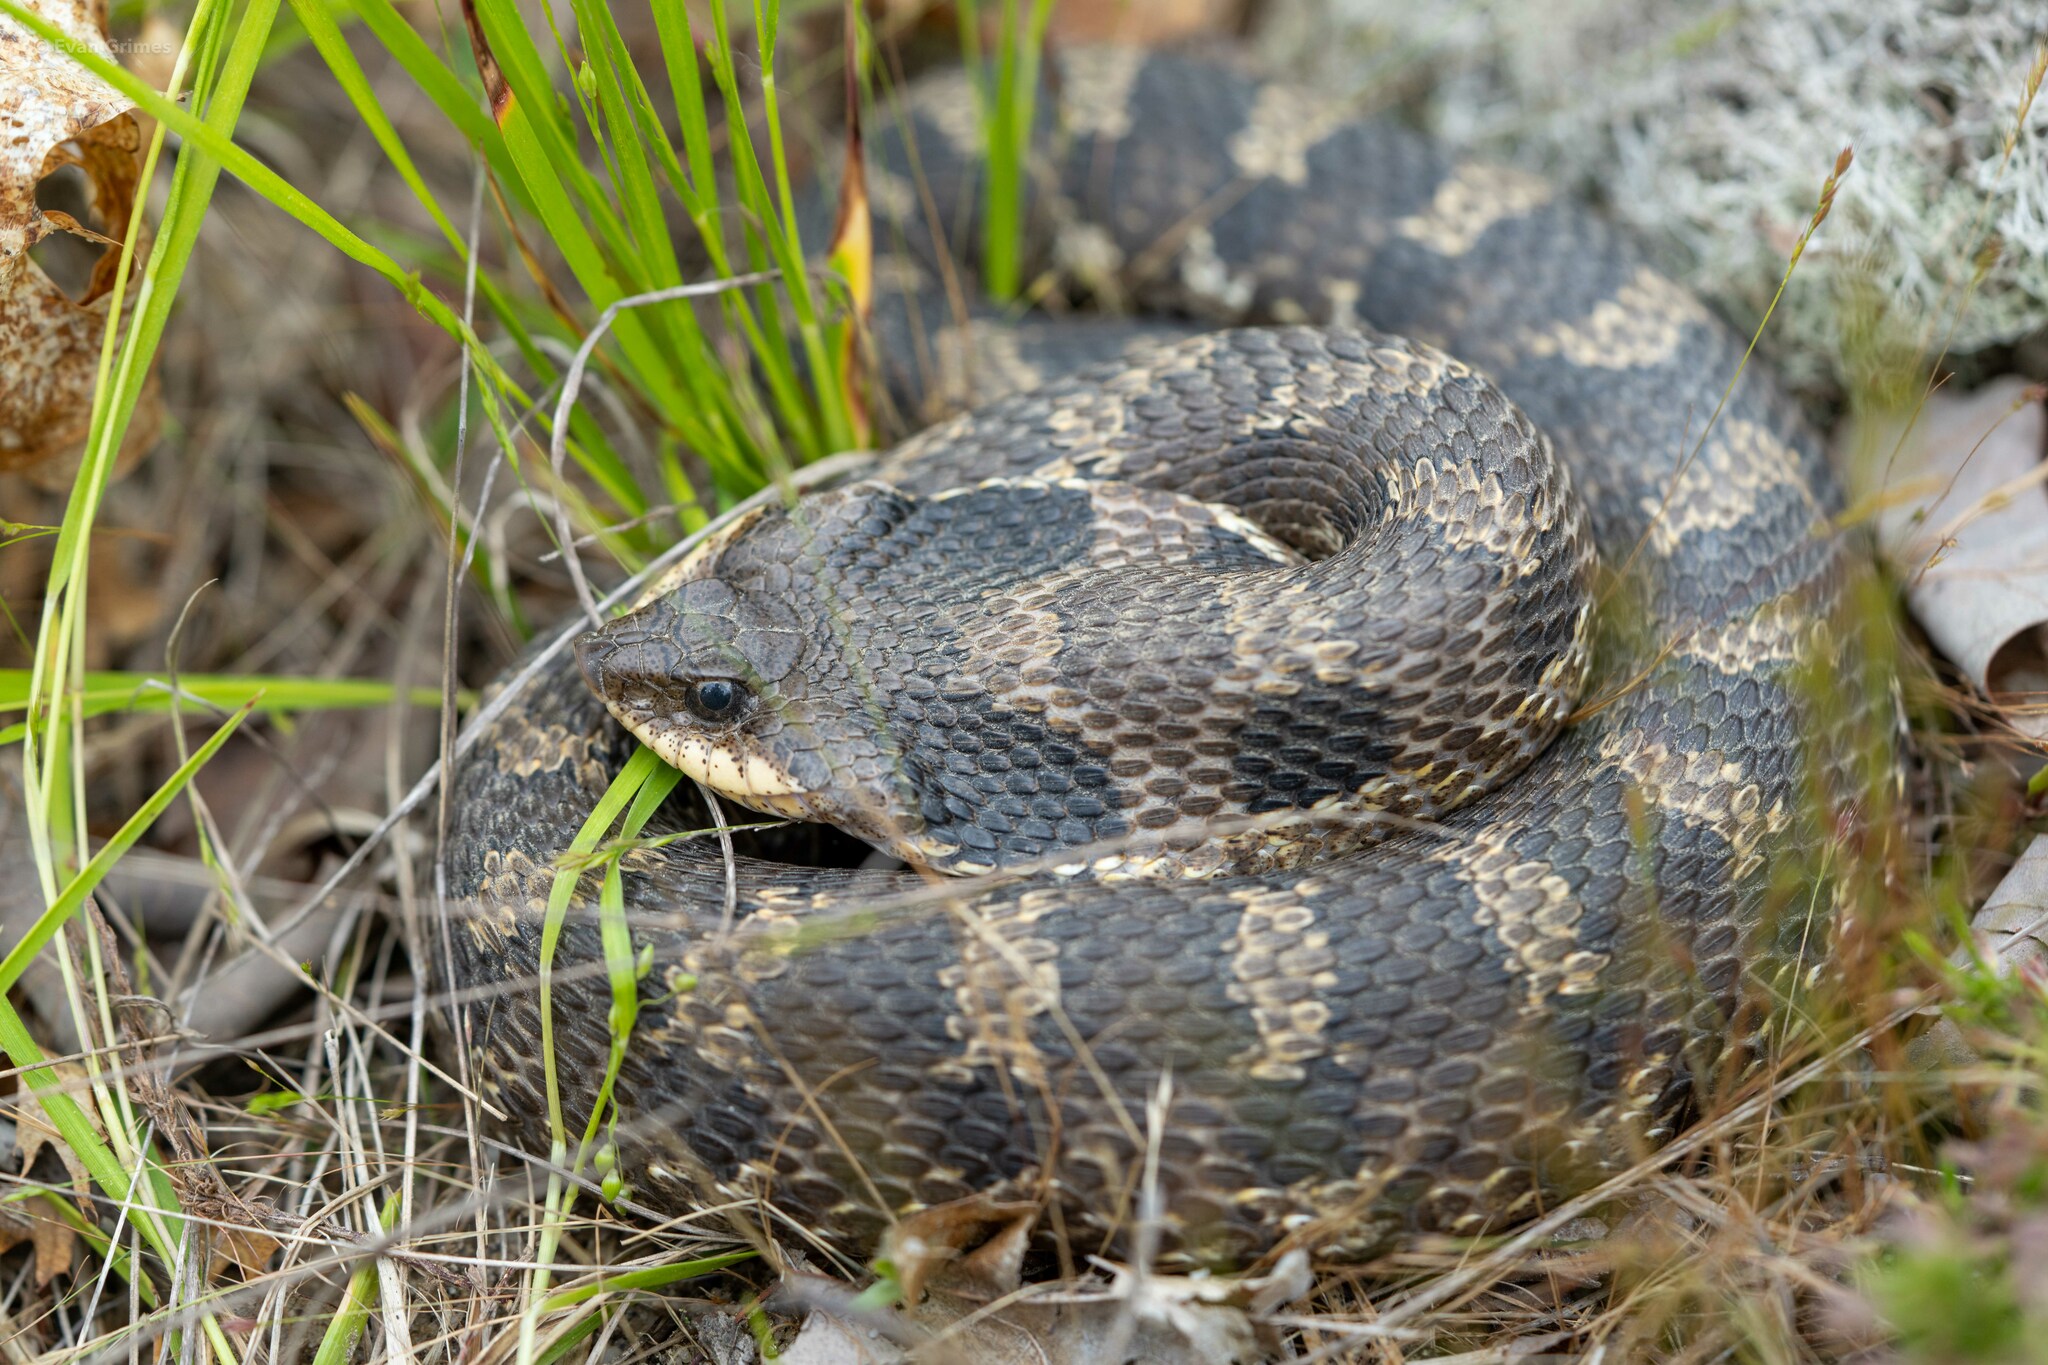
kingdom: Animalia
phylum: Chordata
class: Squamata
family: Colubridae
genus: Heterodon
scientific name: Heterodon platirhinos
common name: Eastern hognose snake
